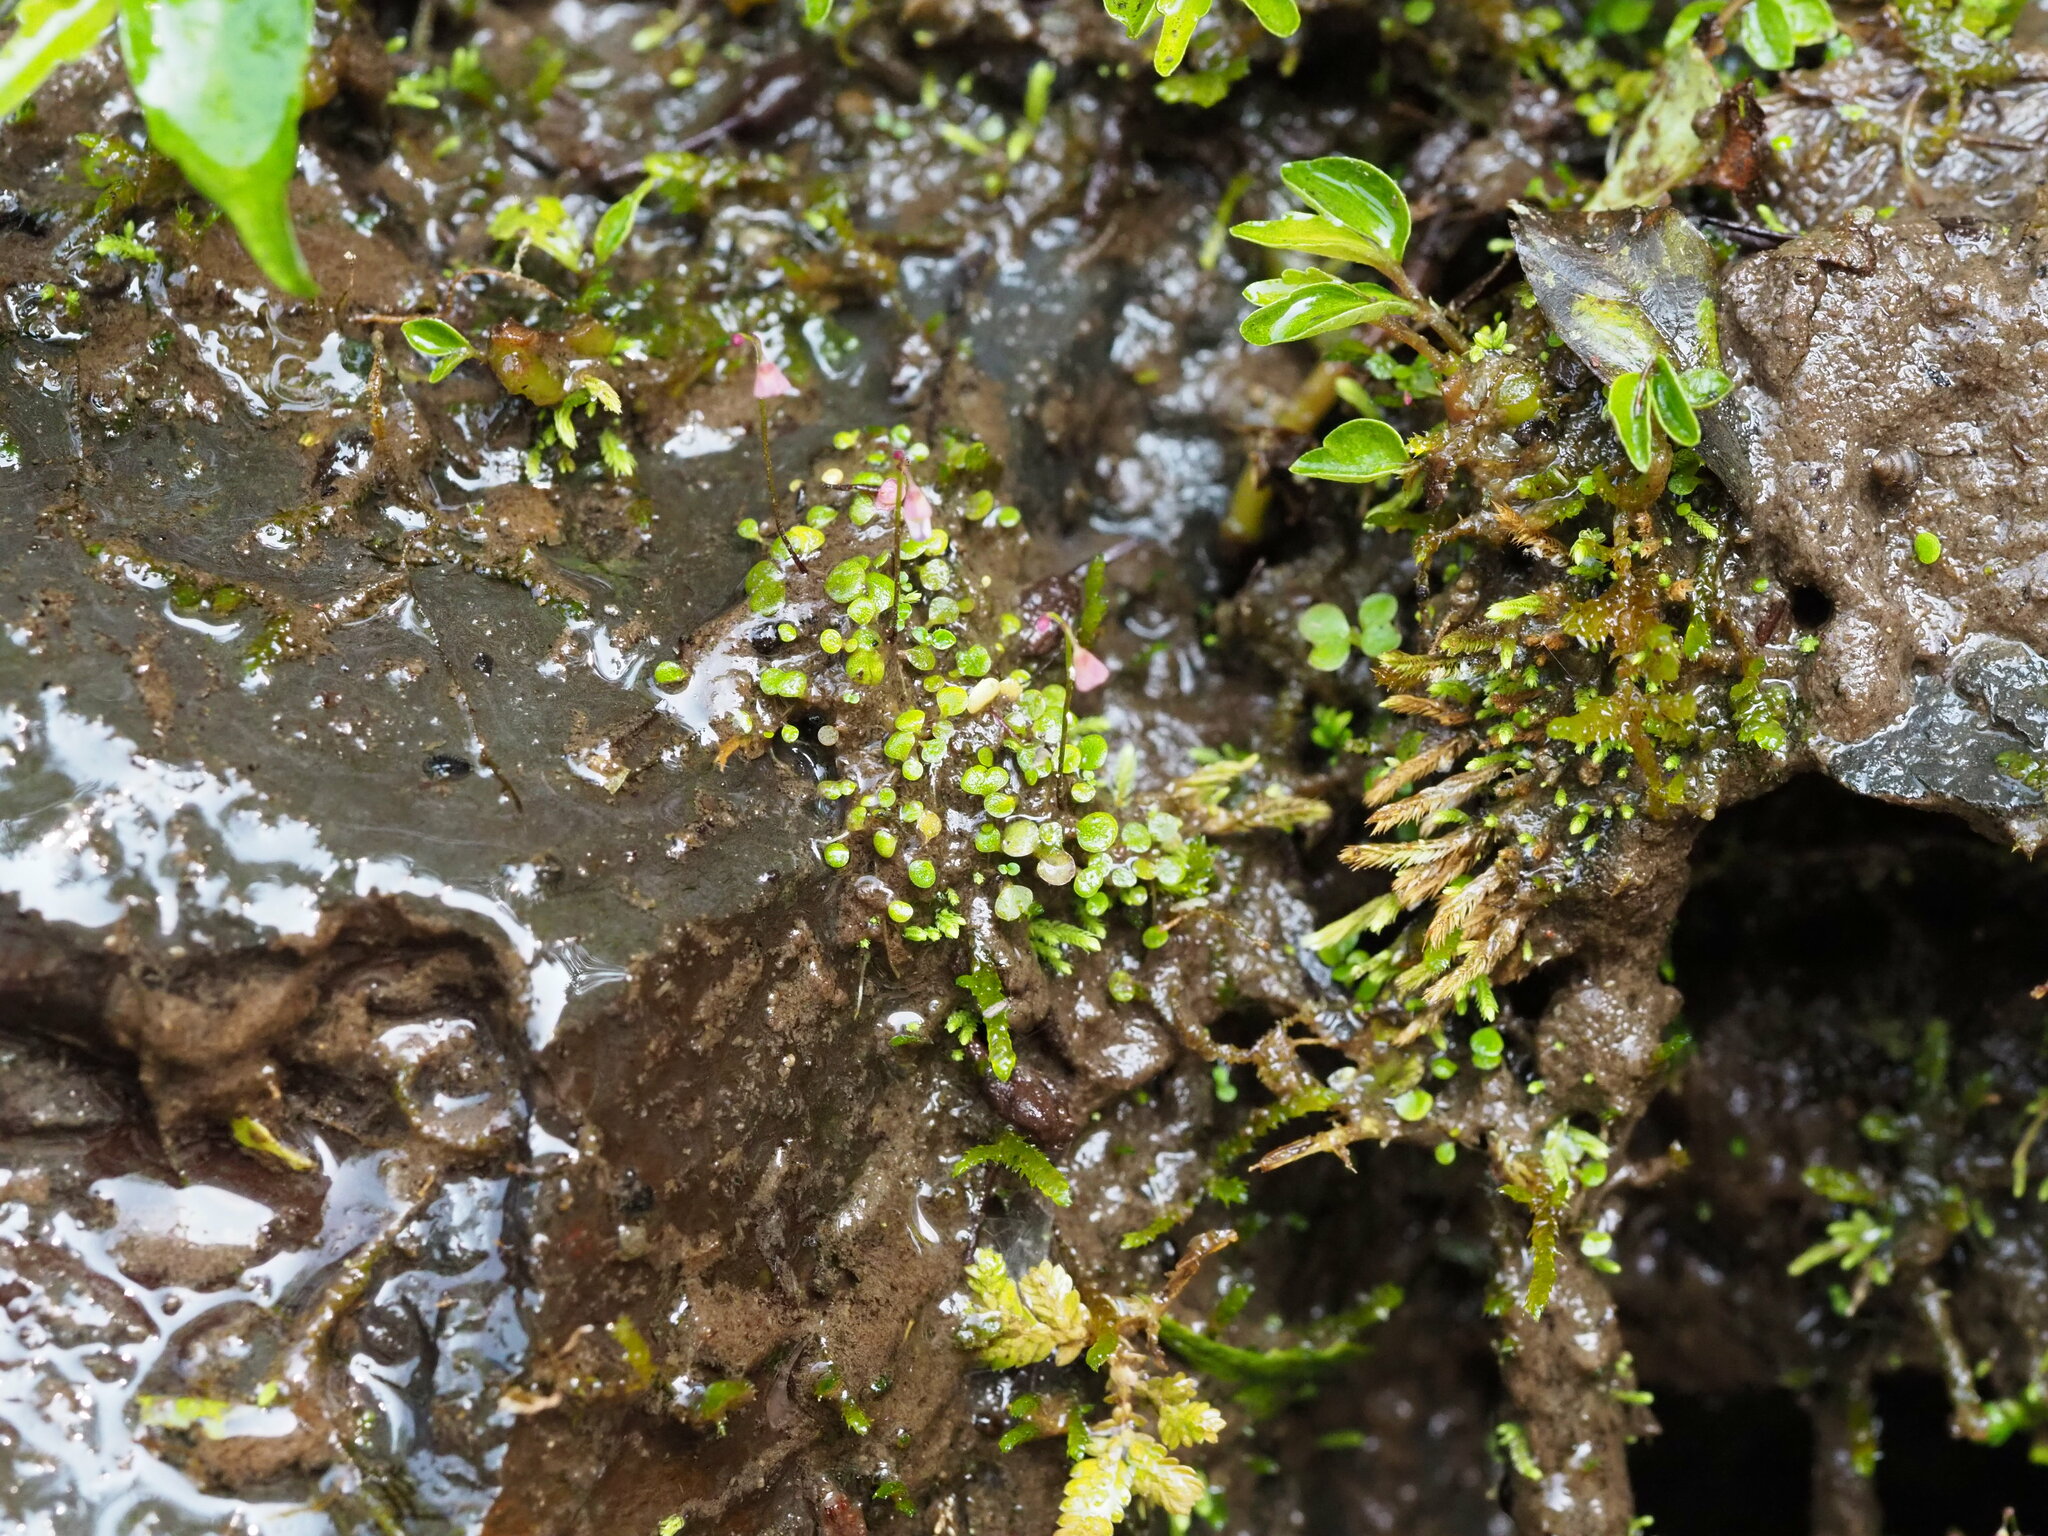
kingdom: Plantae
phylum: Tracheophyta
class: Magnoliopsida
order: Lamiales
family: Lentibulariaceae
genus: Utricularia
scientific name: Utricularia striatula
